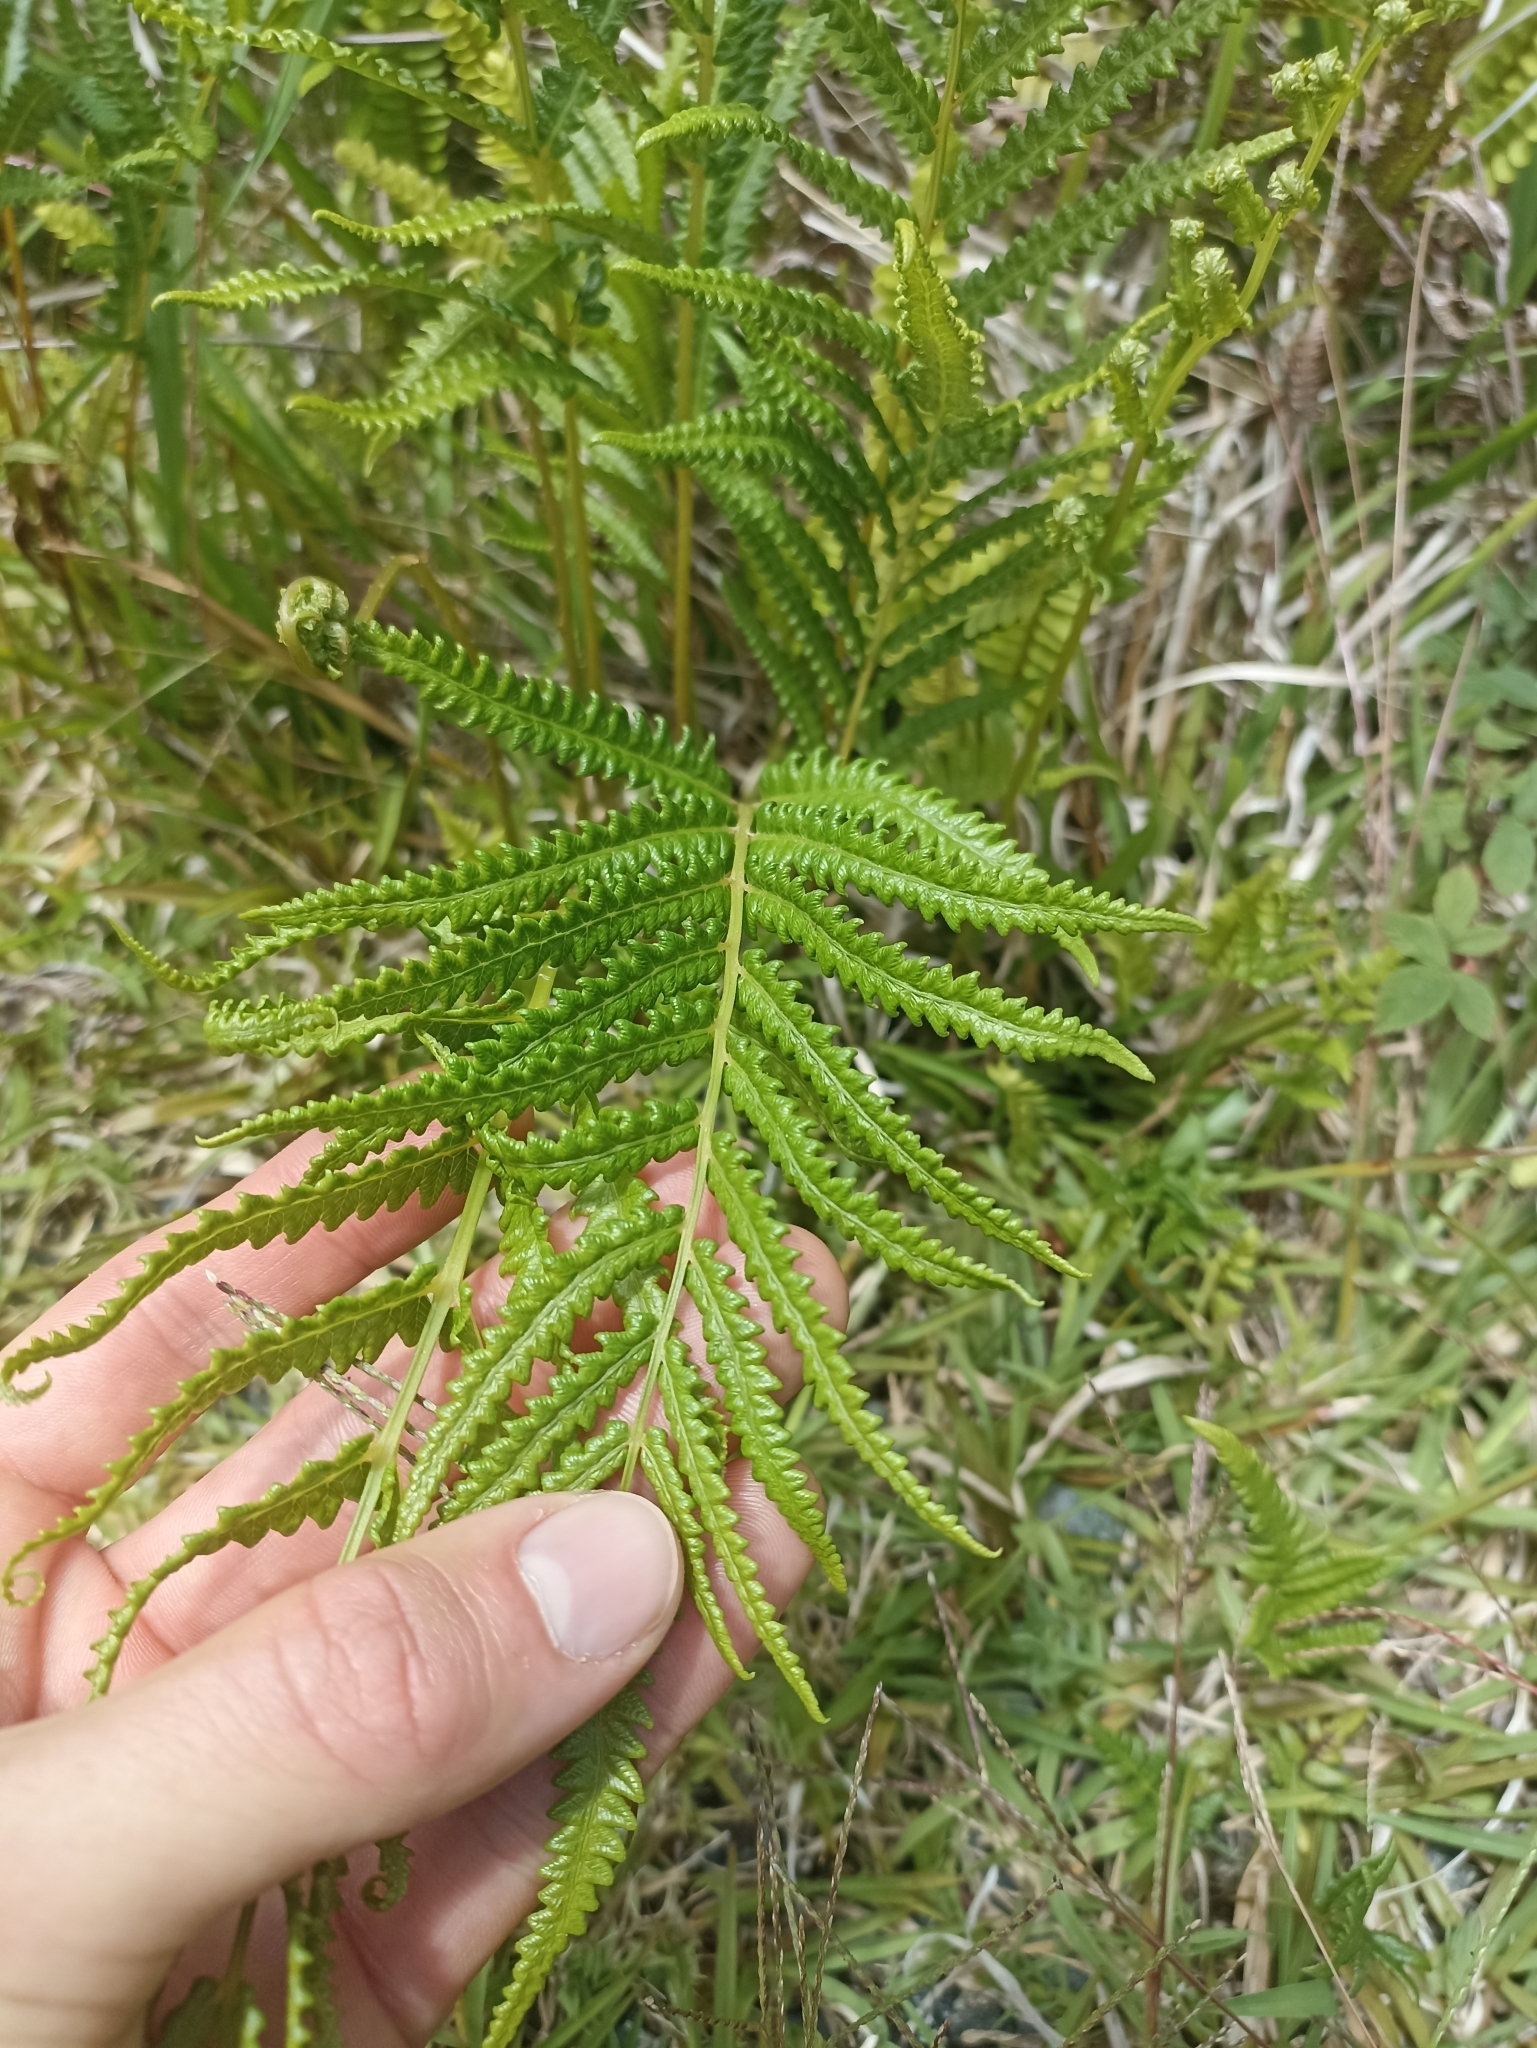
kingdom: Plantae
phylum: Tracheophyta
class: Polypodiopsida
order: Polypodiales
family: Thelypteridaceae
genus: Cyclosorus
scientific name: Cyclosorus interruptus
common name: Neke fern
